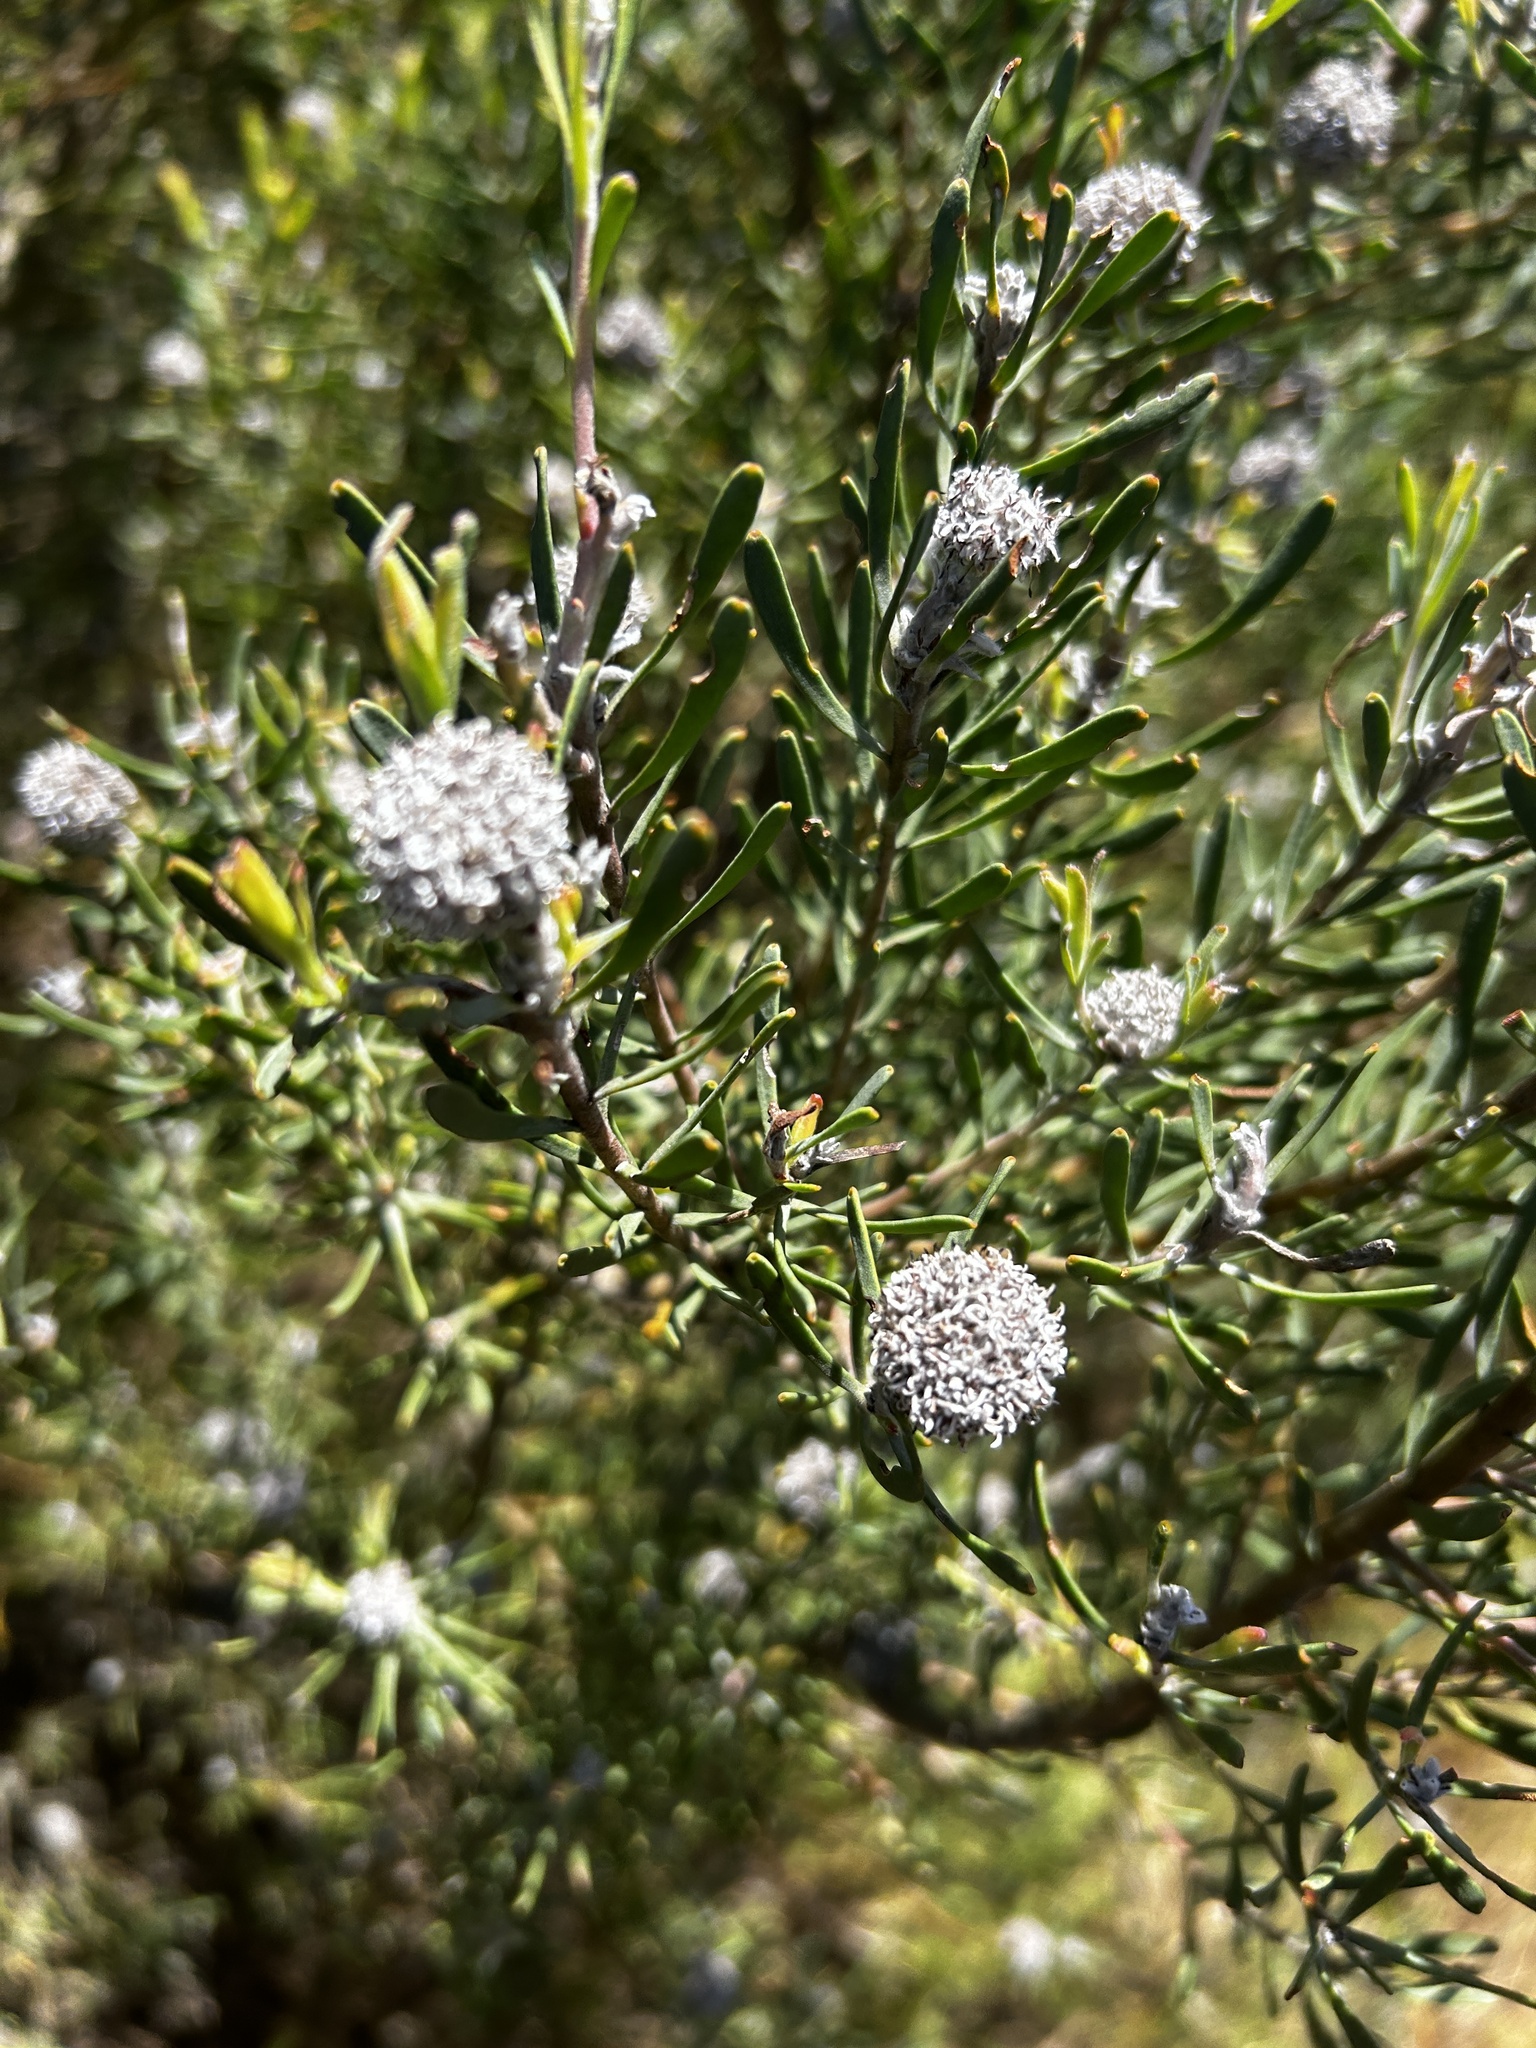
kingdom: Plantae
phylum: Tracheophyta
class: Magnoliopsida
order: Proteales
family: Proteaceae
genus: Leucadendron
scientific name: Leucadendron galpinii
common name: Hairless conebush
